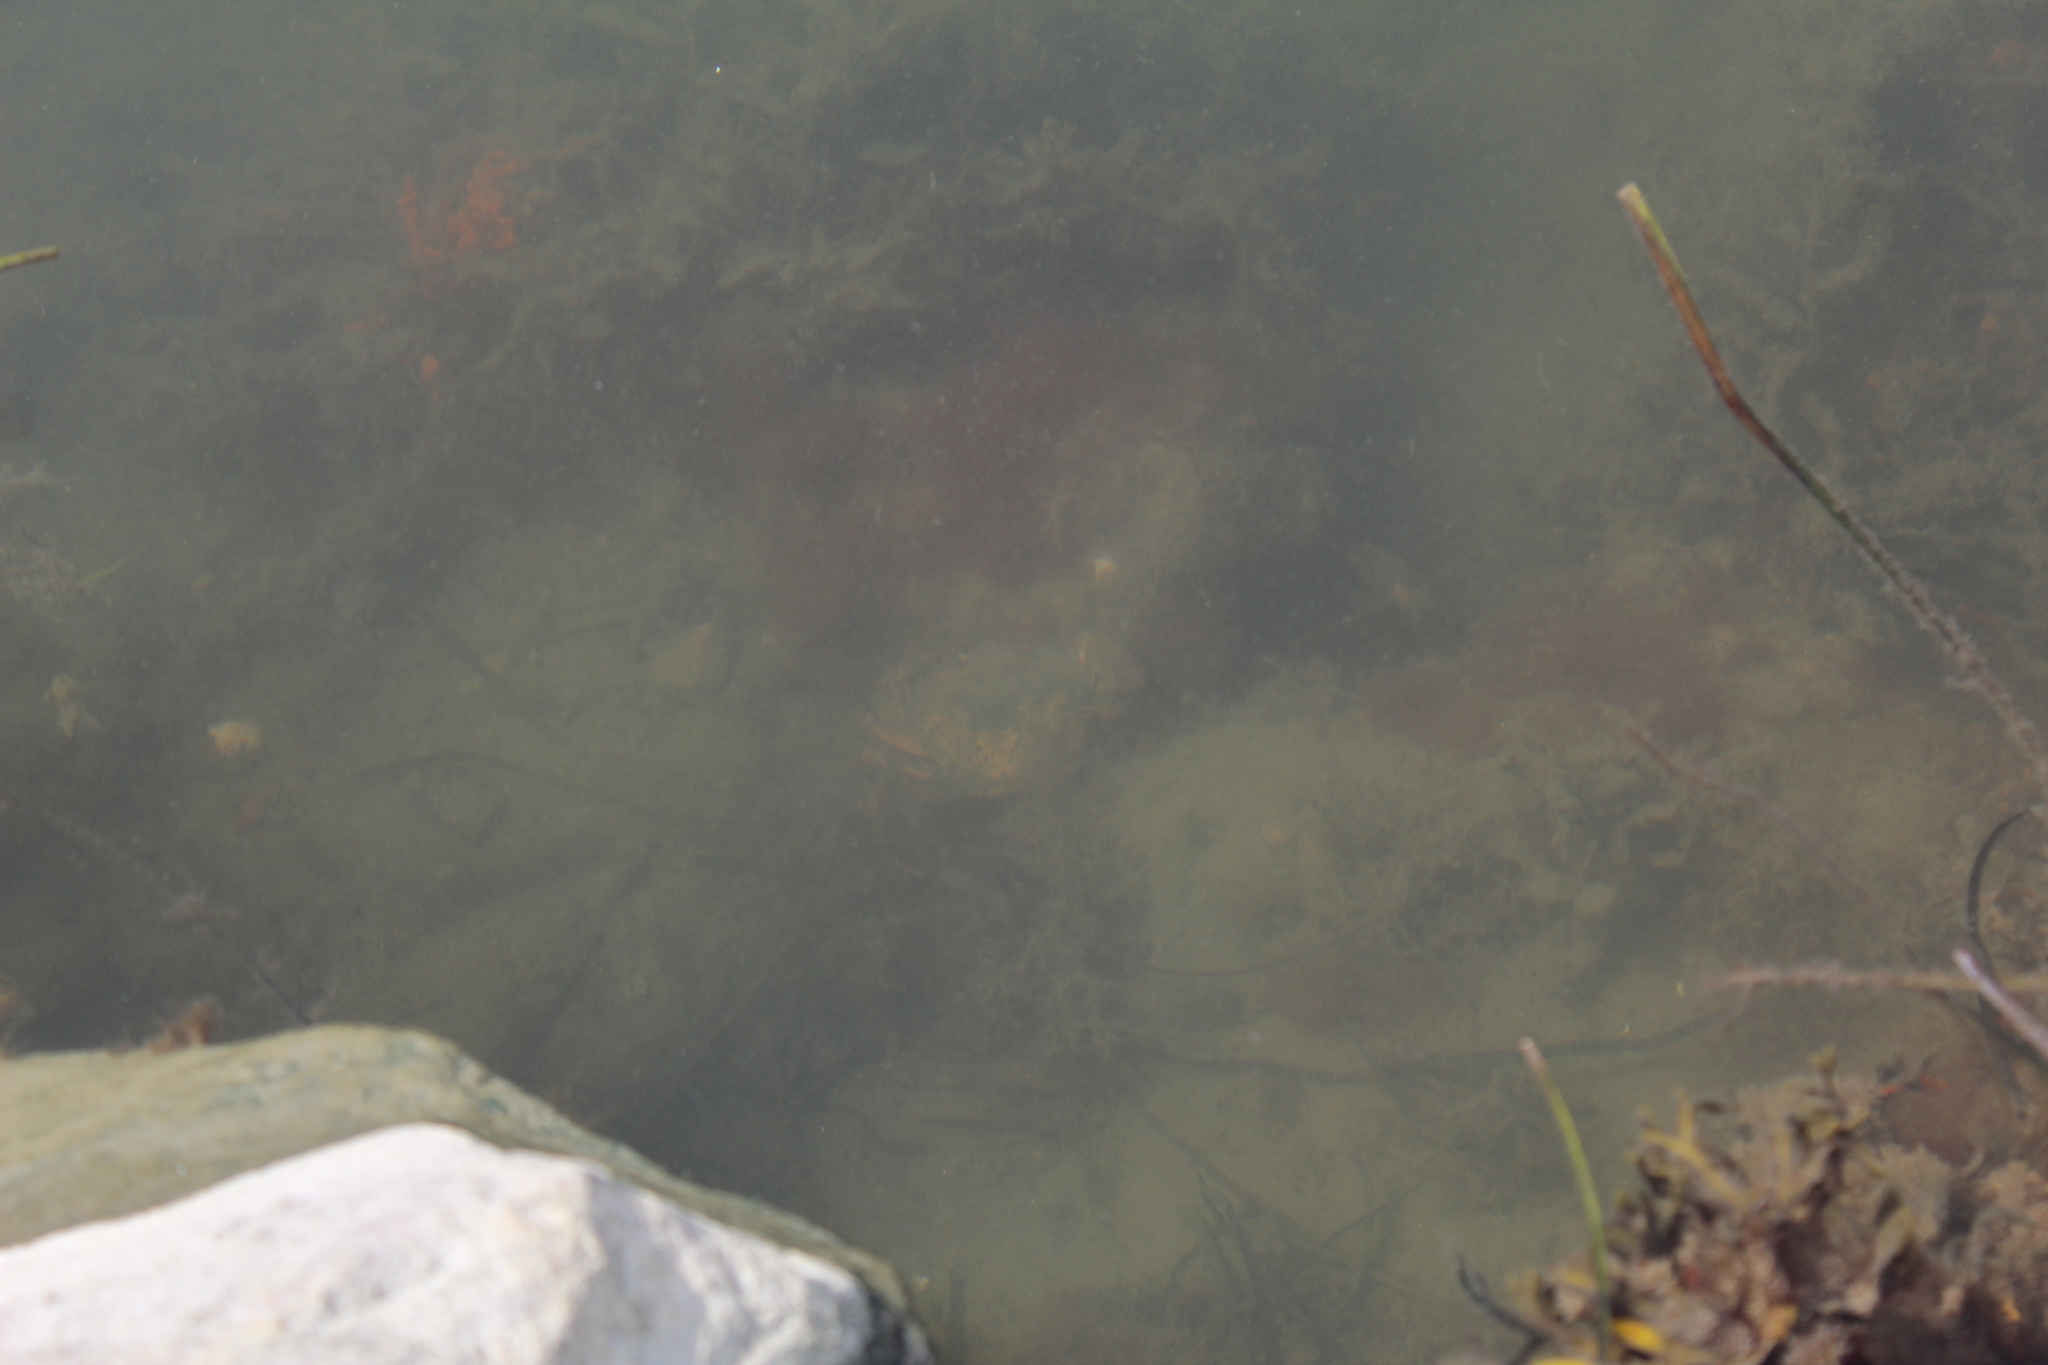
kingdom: Animalia
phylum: Arthropoda
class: Malacostraca
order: Decapoda
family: Carcinidae
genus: Carcinus
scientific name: Carcinus maenas
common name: European green crab
